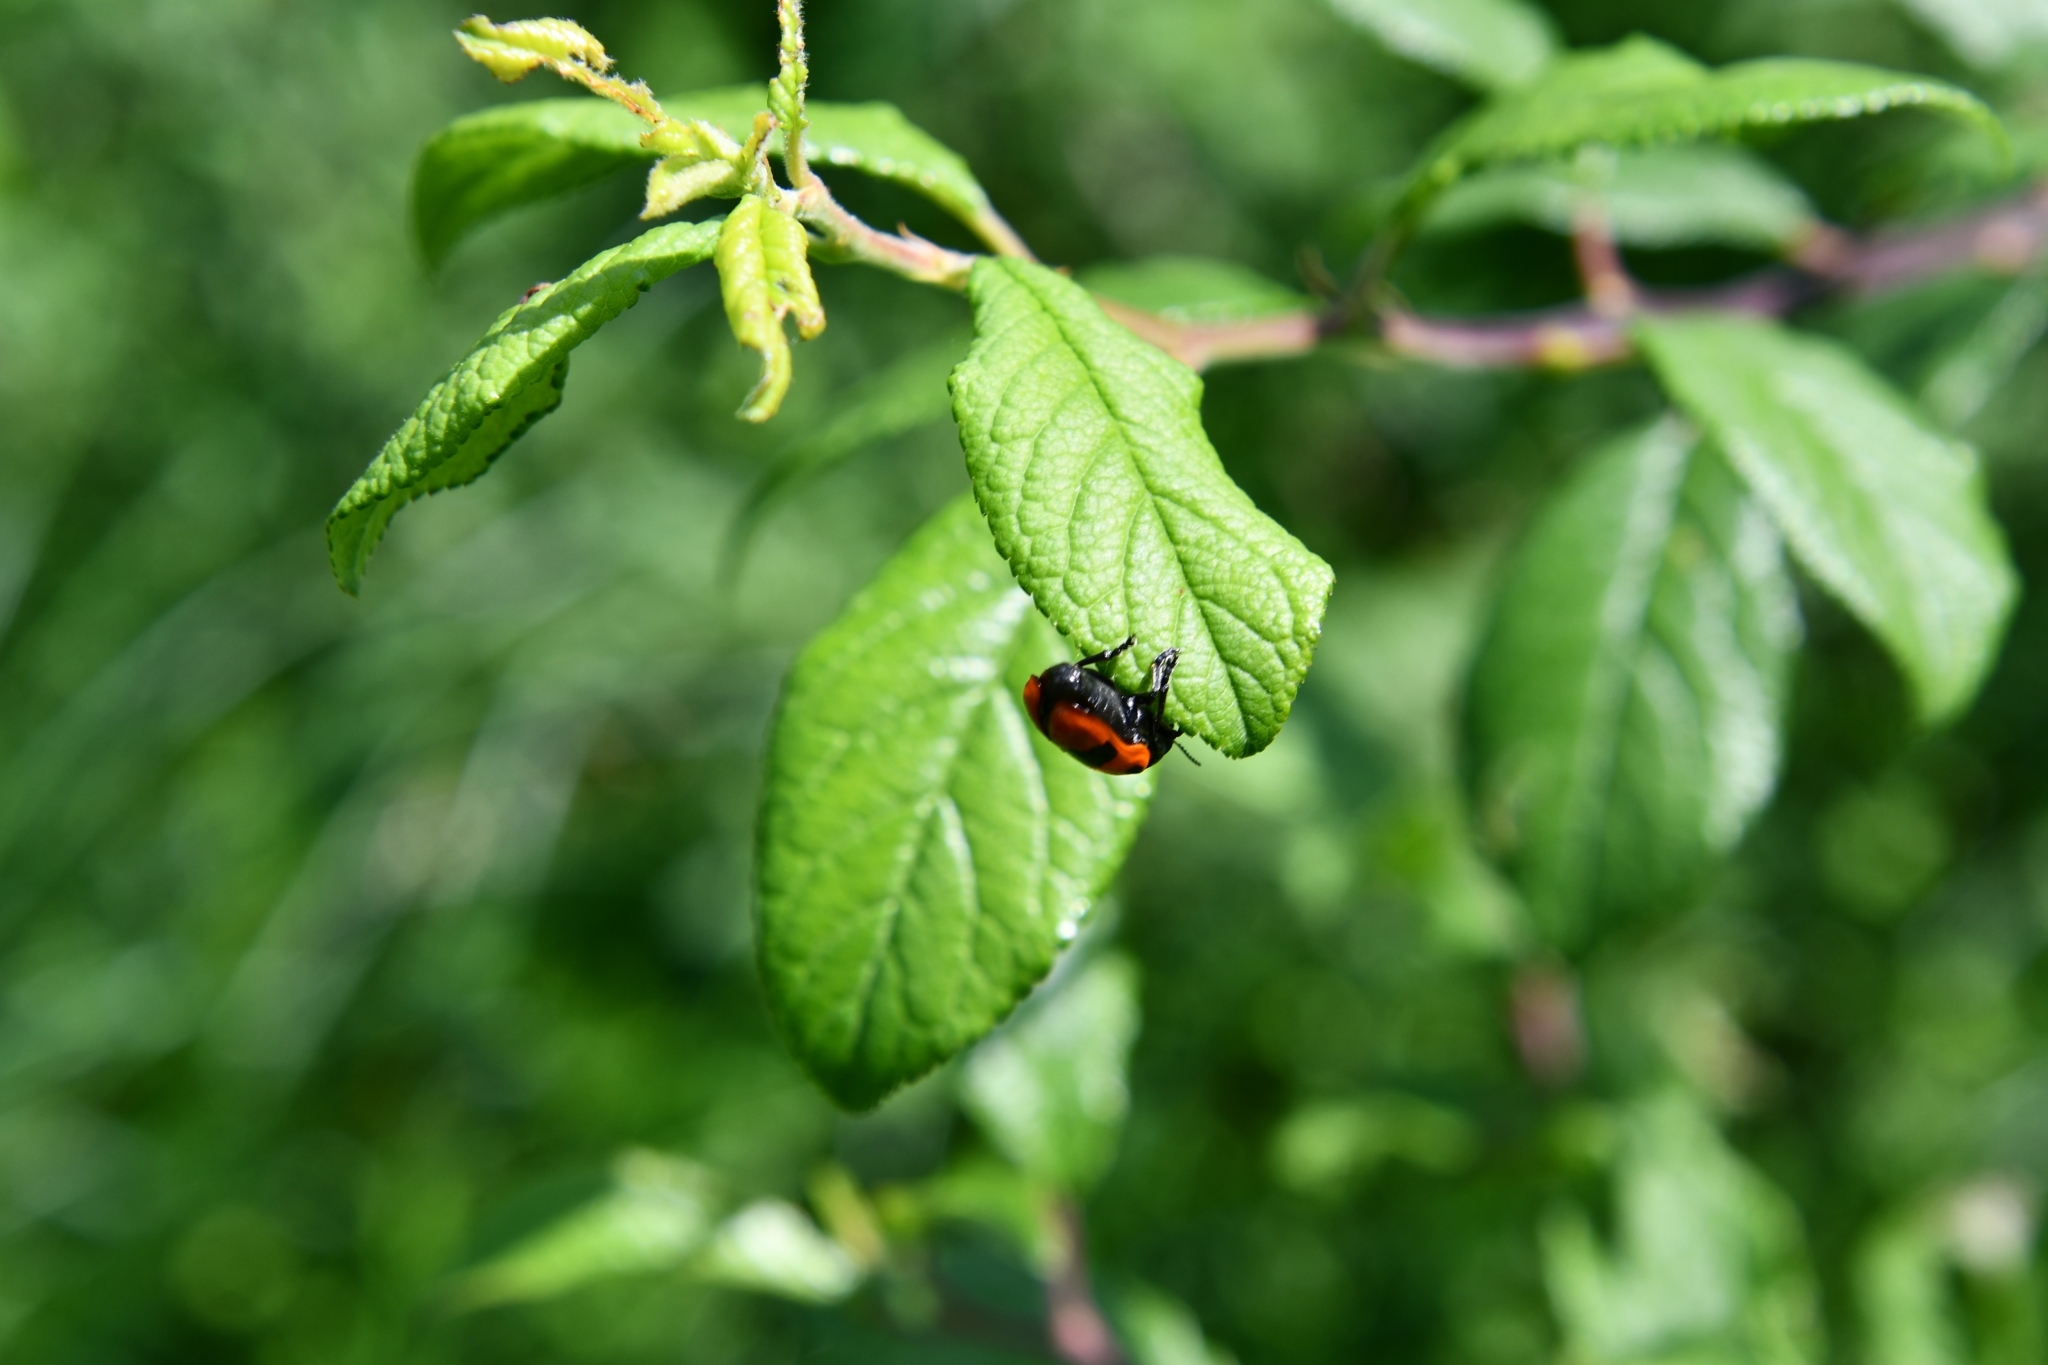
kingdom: Animalia
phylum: Arthropoda
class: Insecta
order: Coleoptera
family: Chrysomelidae
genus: Clytra
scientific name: Clytra laeviuscula
